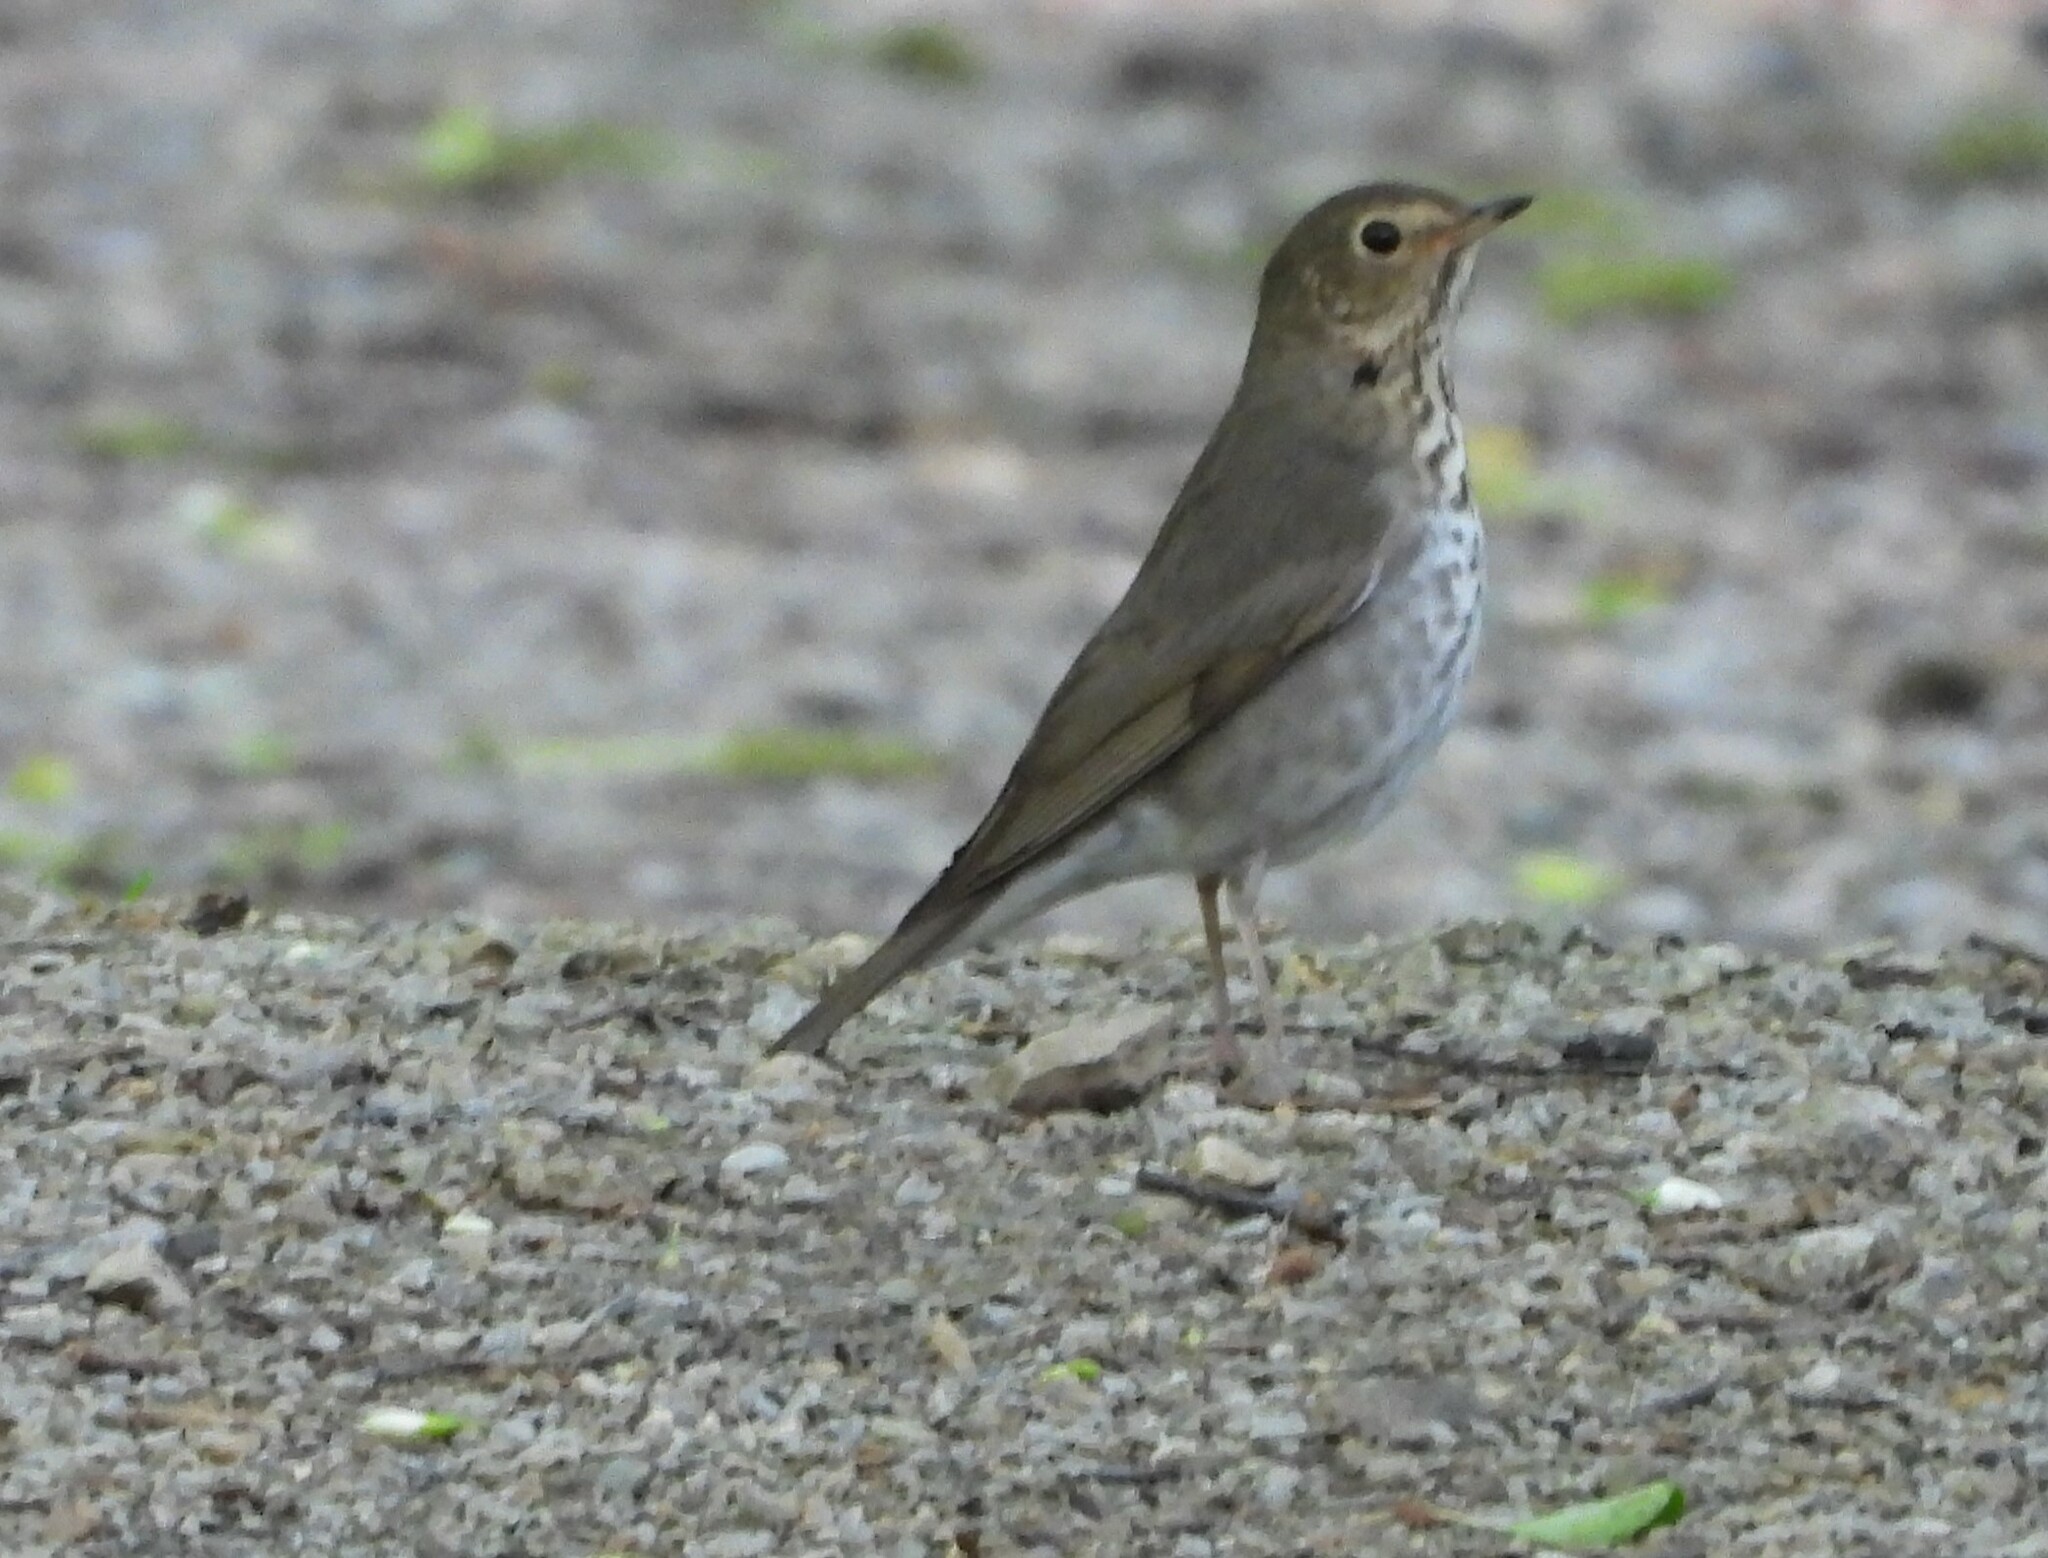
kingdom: Animalia
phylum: Chordata
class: Aves
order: Passeriformes
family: Turdidae
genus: Catharus
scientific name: Catharus ustulatus
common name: Swainson's thrush
